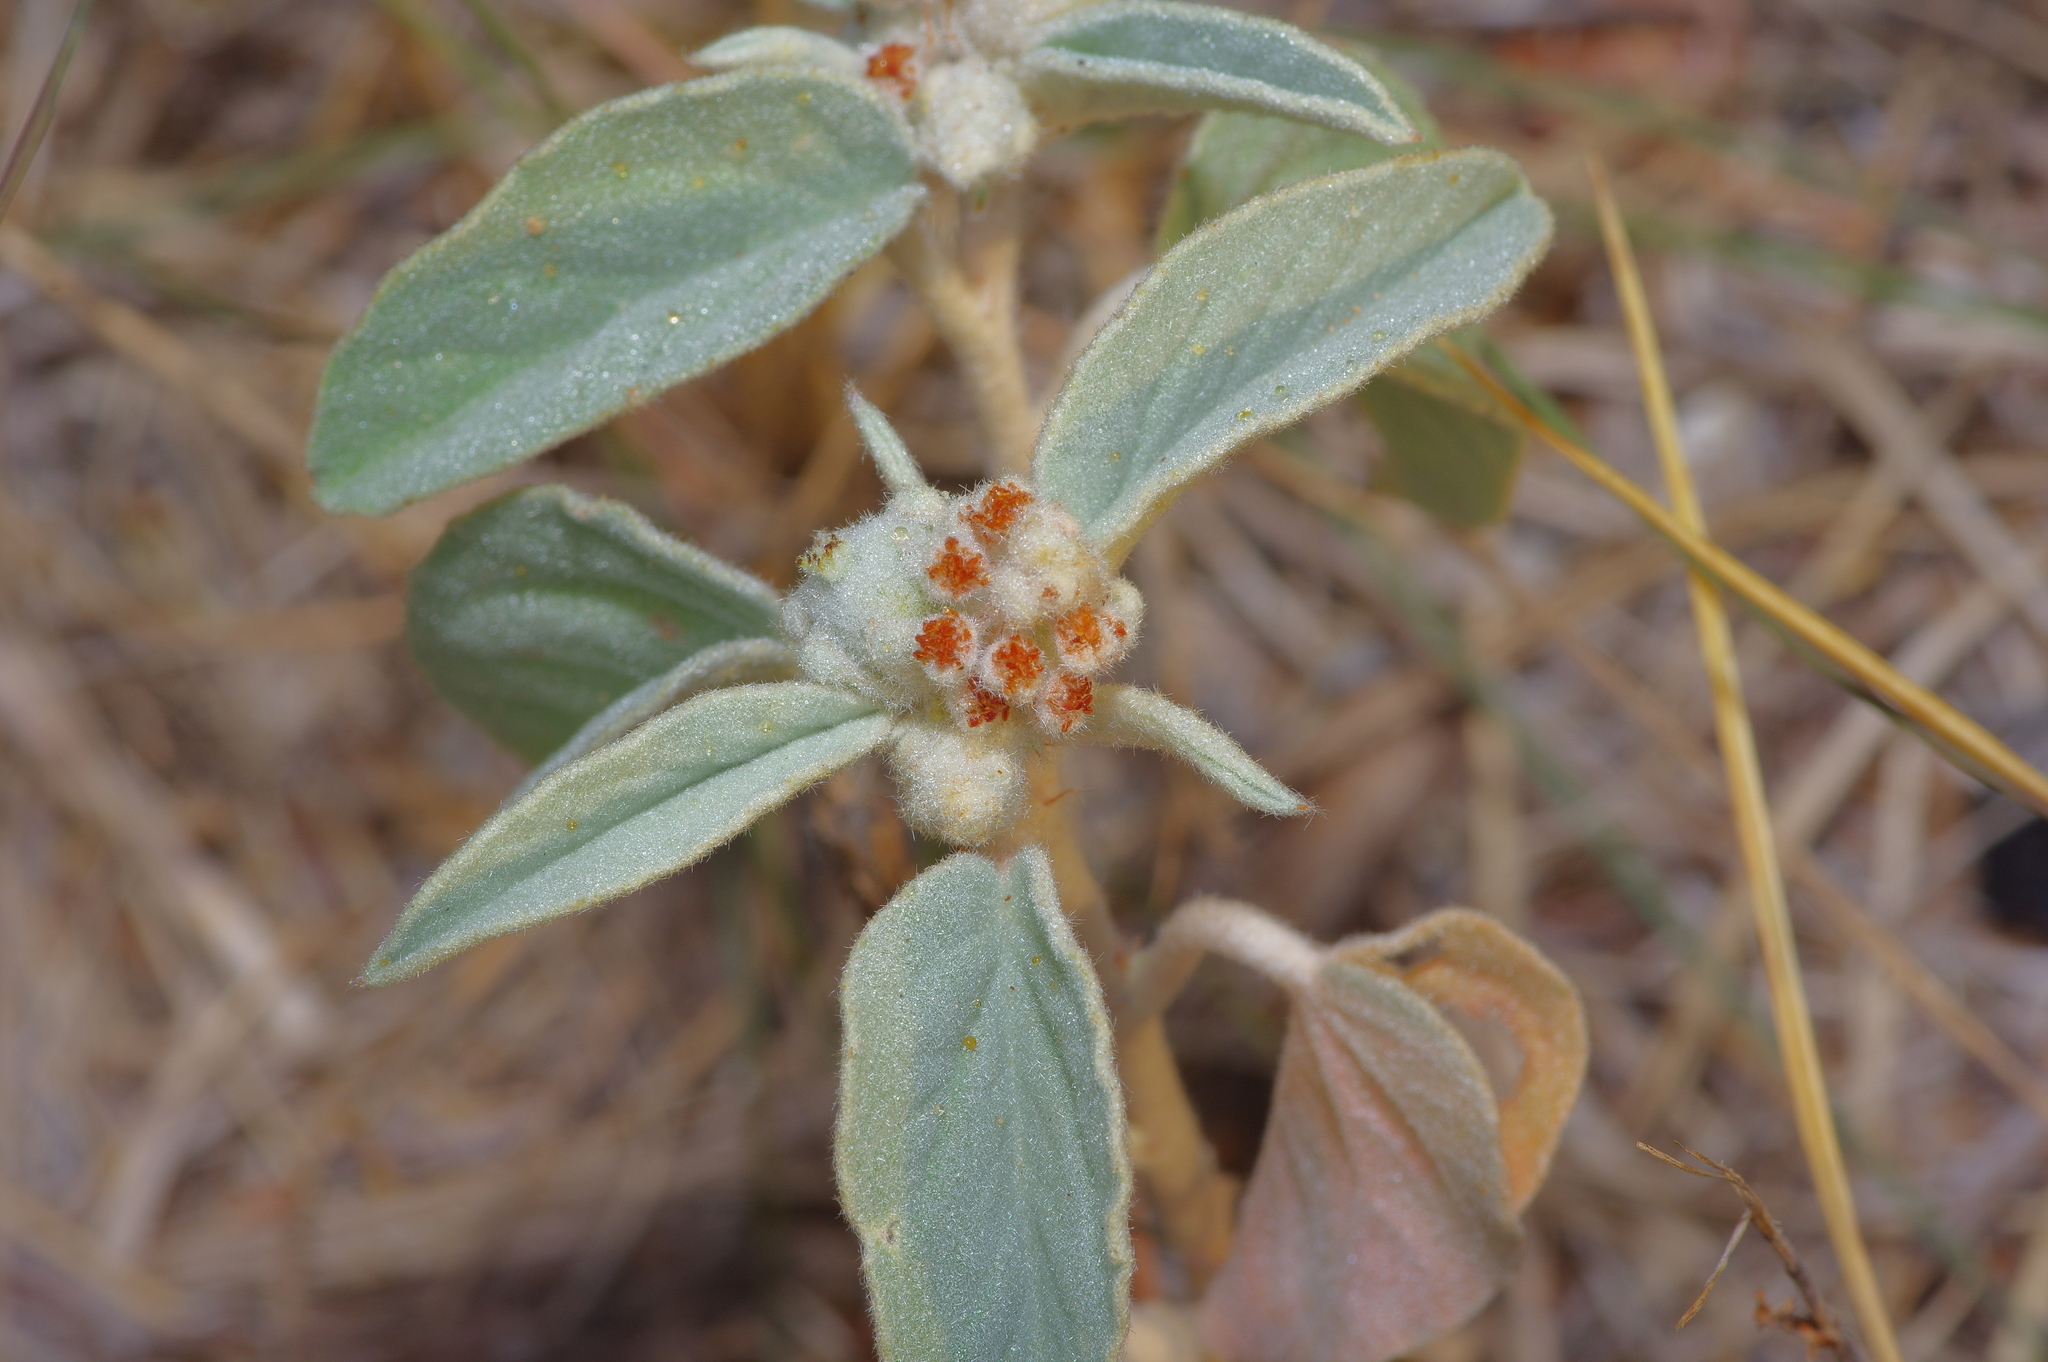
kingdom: Plantae
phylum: Tracheophyta
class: Magnoliopsida
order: Malpighiales
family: Euphorbiaceae
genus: Croton
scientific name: Croton lindheimeri
